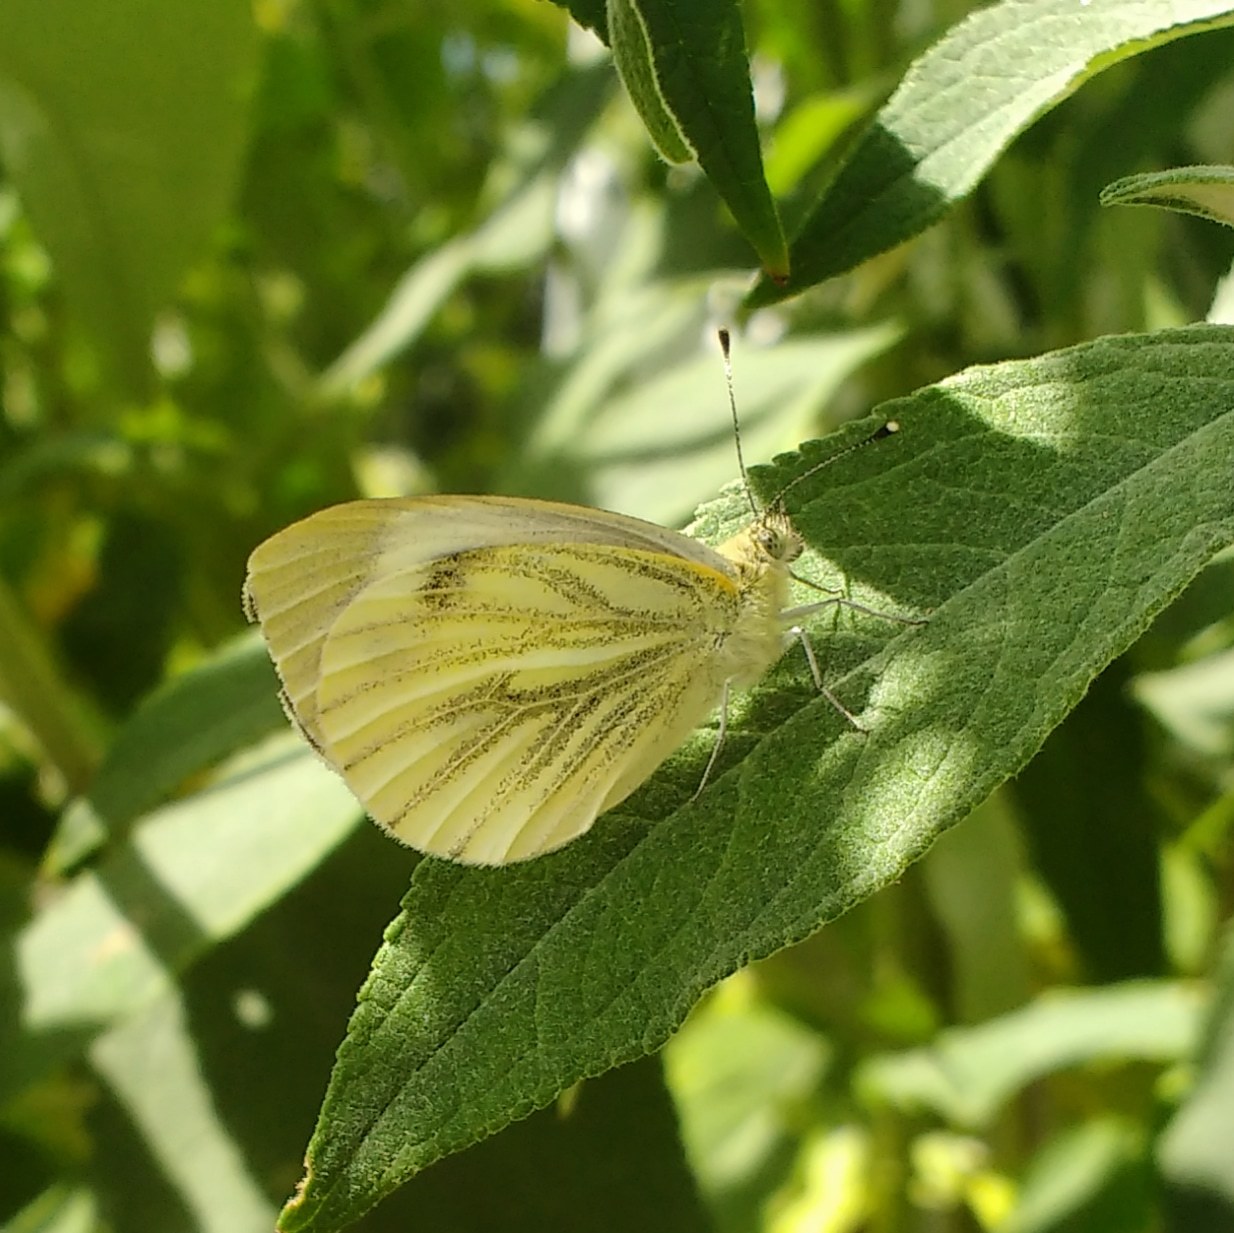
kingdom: Animalia
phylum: Arthropoda
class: Insecta
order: Lepidoptera
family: Pieridae
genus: Pieris
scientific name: Pieris napi
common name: Green-veined white
